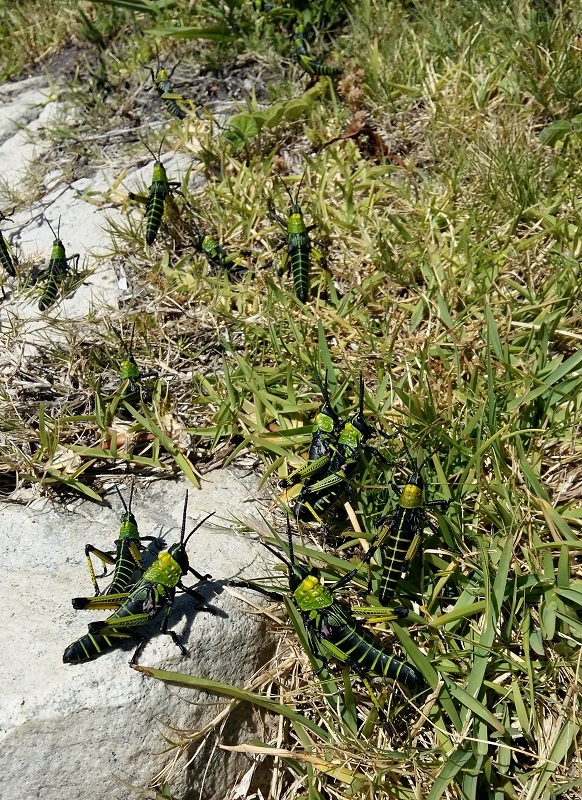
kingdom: Animalia
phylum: Arthropoda
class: Insecta
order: Orthoptera
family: Pyrgomorphidae
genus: Phymateus
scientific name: Phymateus leprosus
